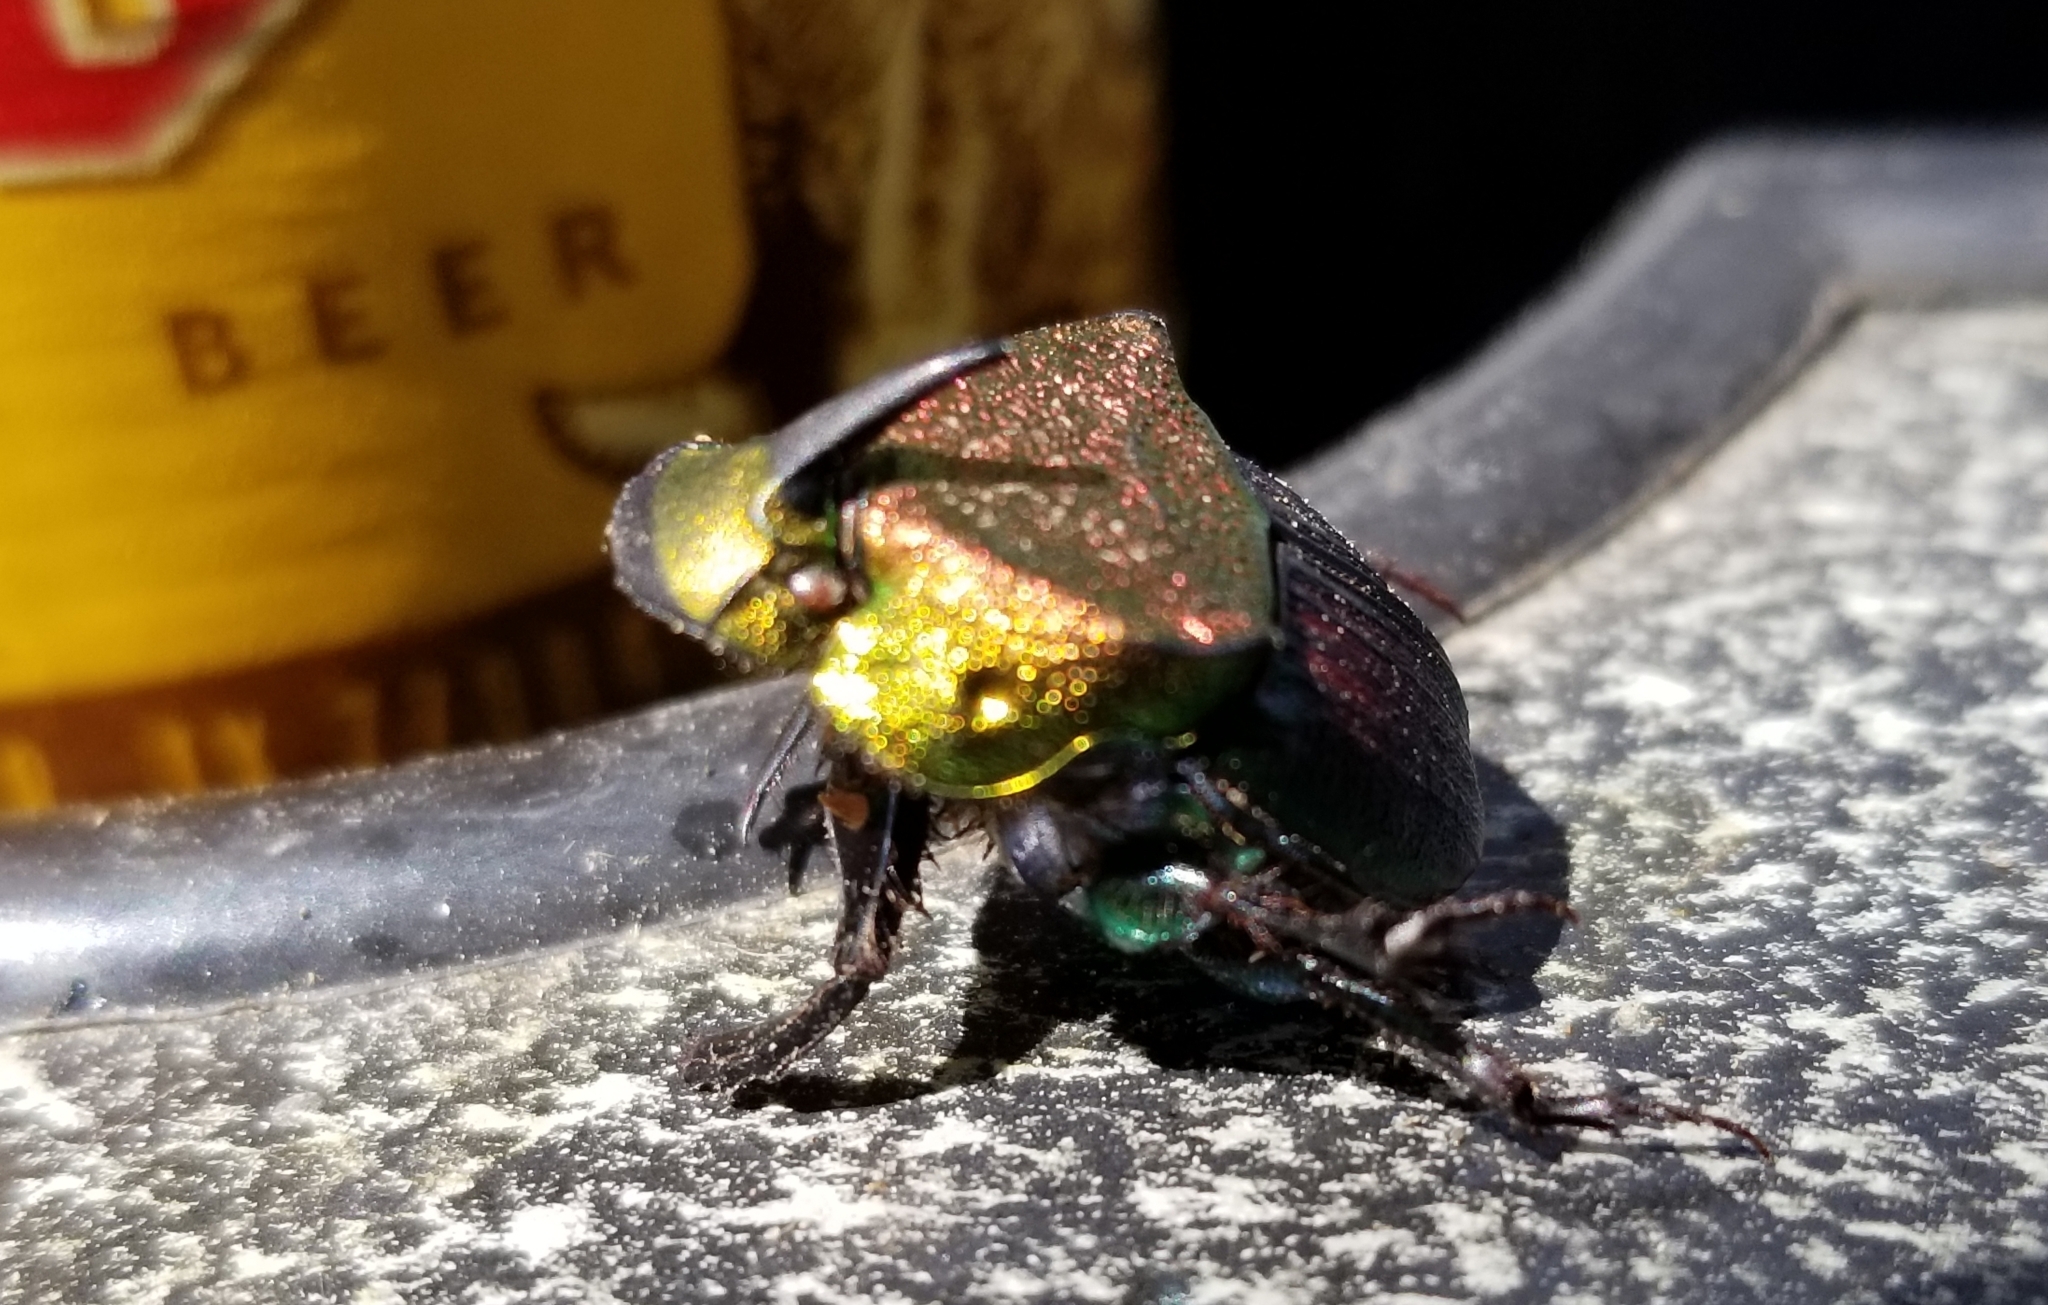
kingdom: Animalia
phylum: Arthropoda
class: Insecta
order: Coleoptera
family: Scarabaeidae
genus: Phanaeus
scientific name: Phanaeus vindex
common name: Rainbow scarab
